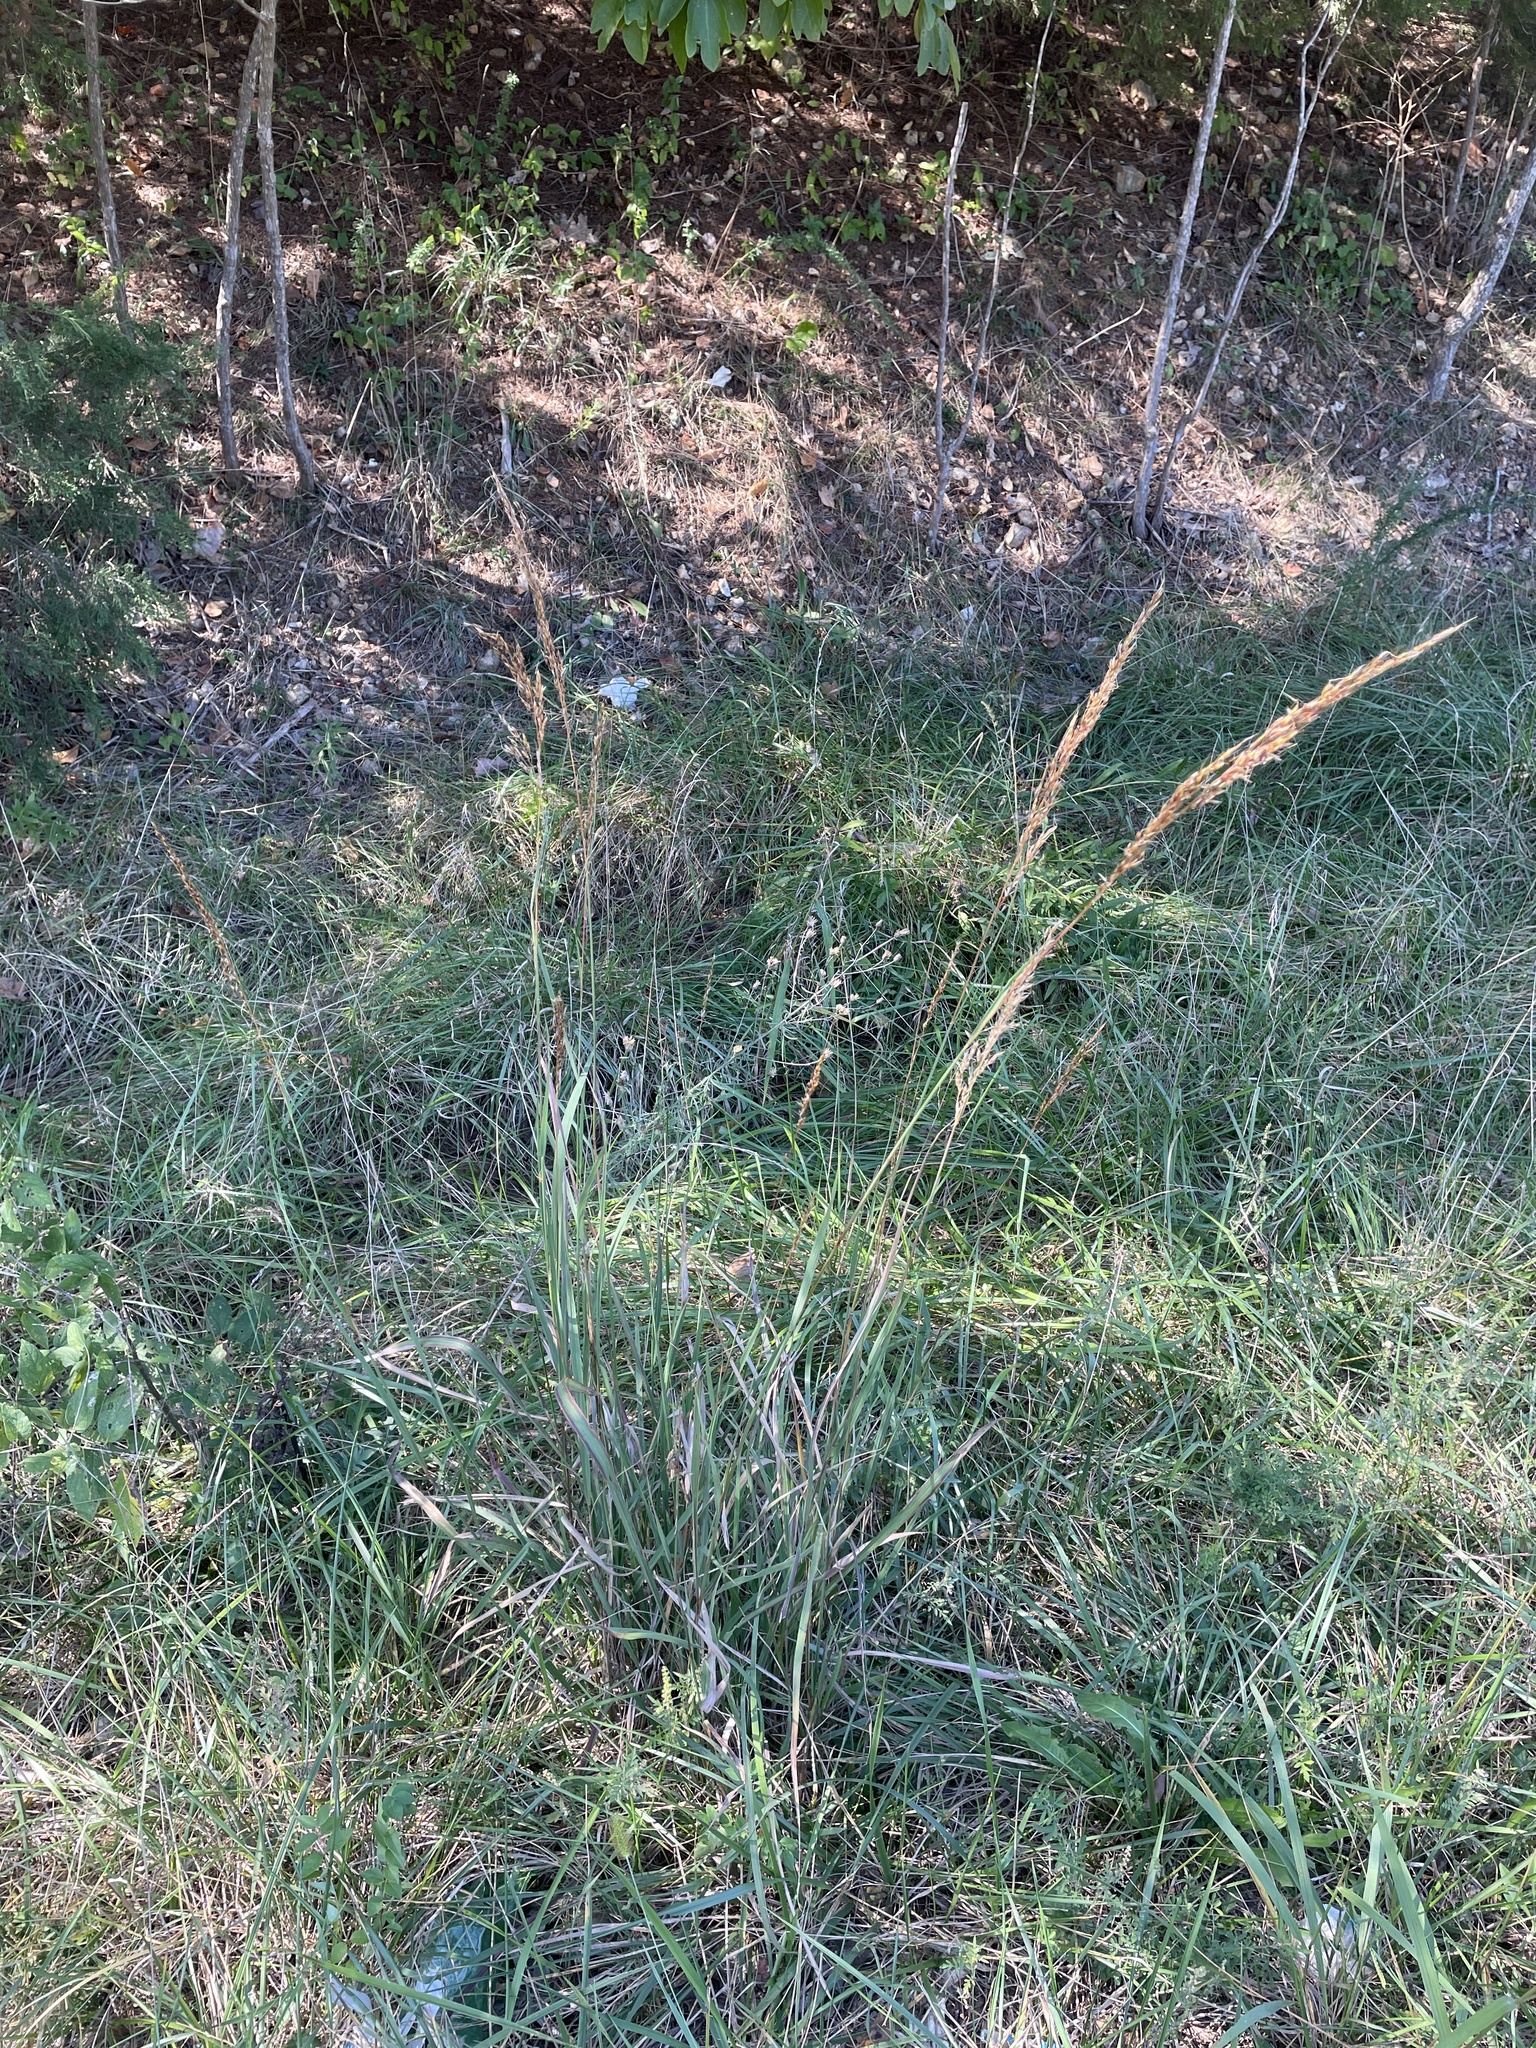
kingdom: Plantae
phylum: Tracheophyta
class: Liliopsida
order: Poales
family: Poaceae
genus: Sorghastrum
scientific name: Sorghastrum nutans
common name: Indian grass
